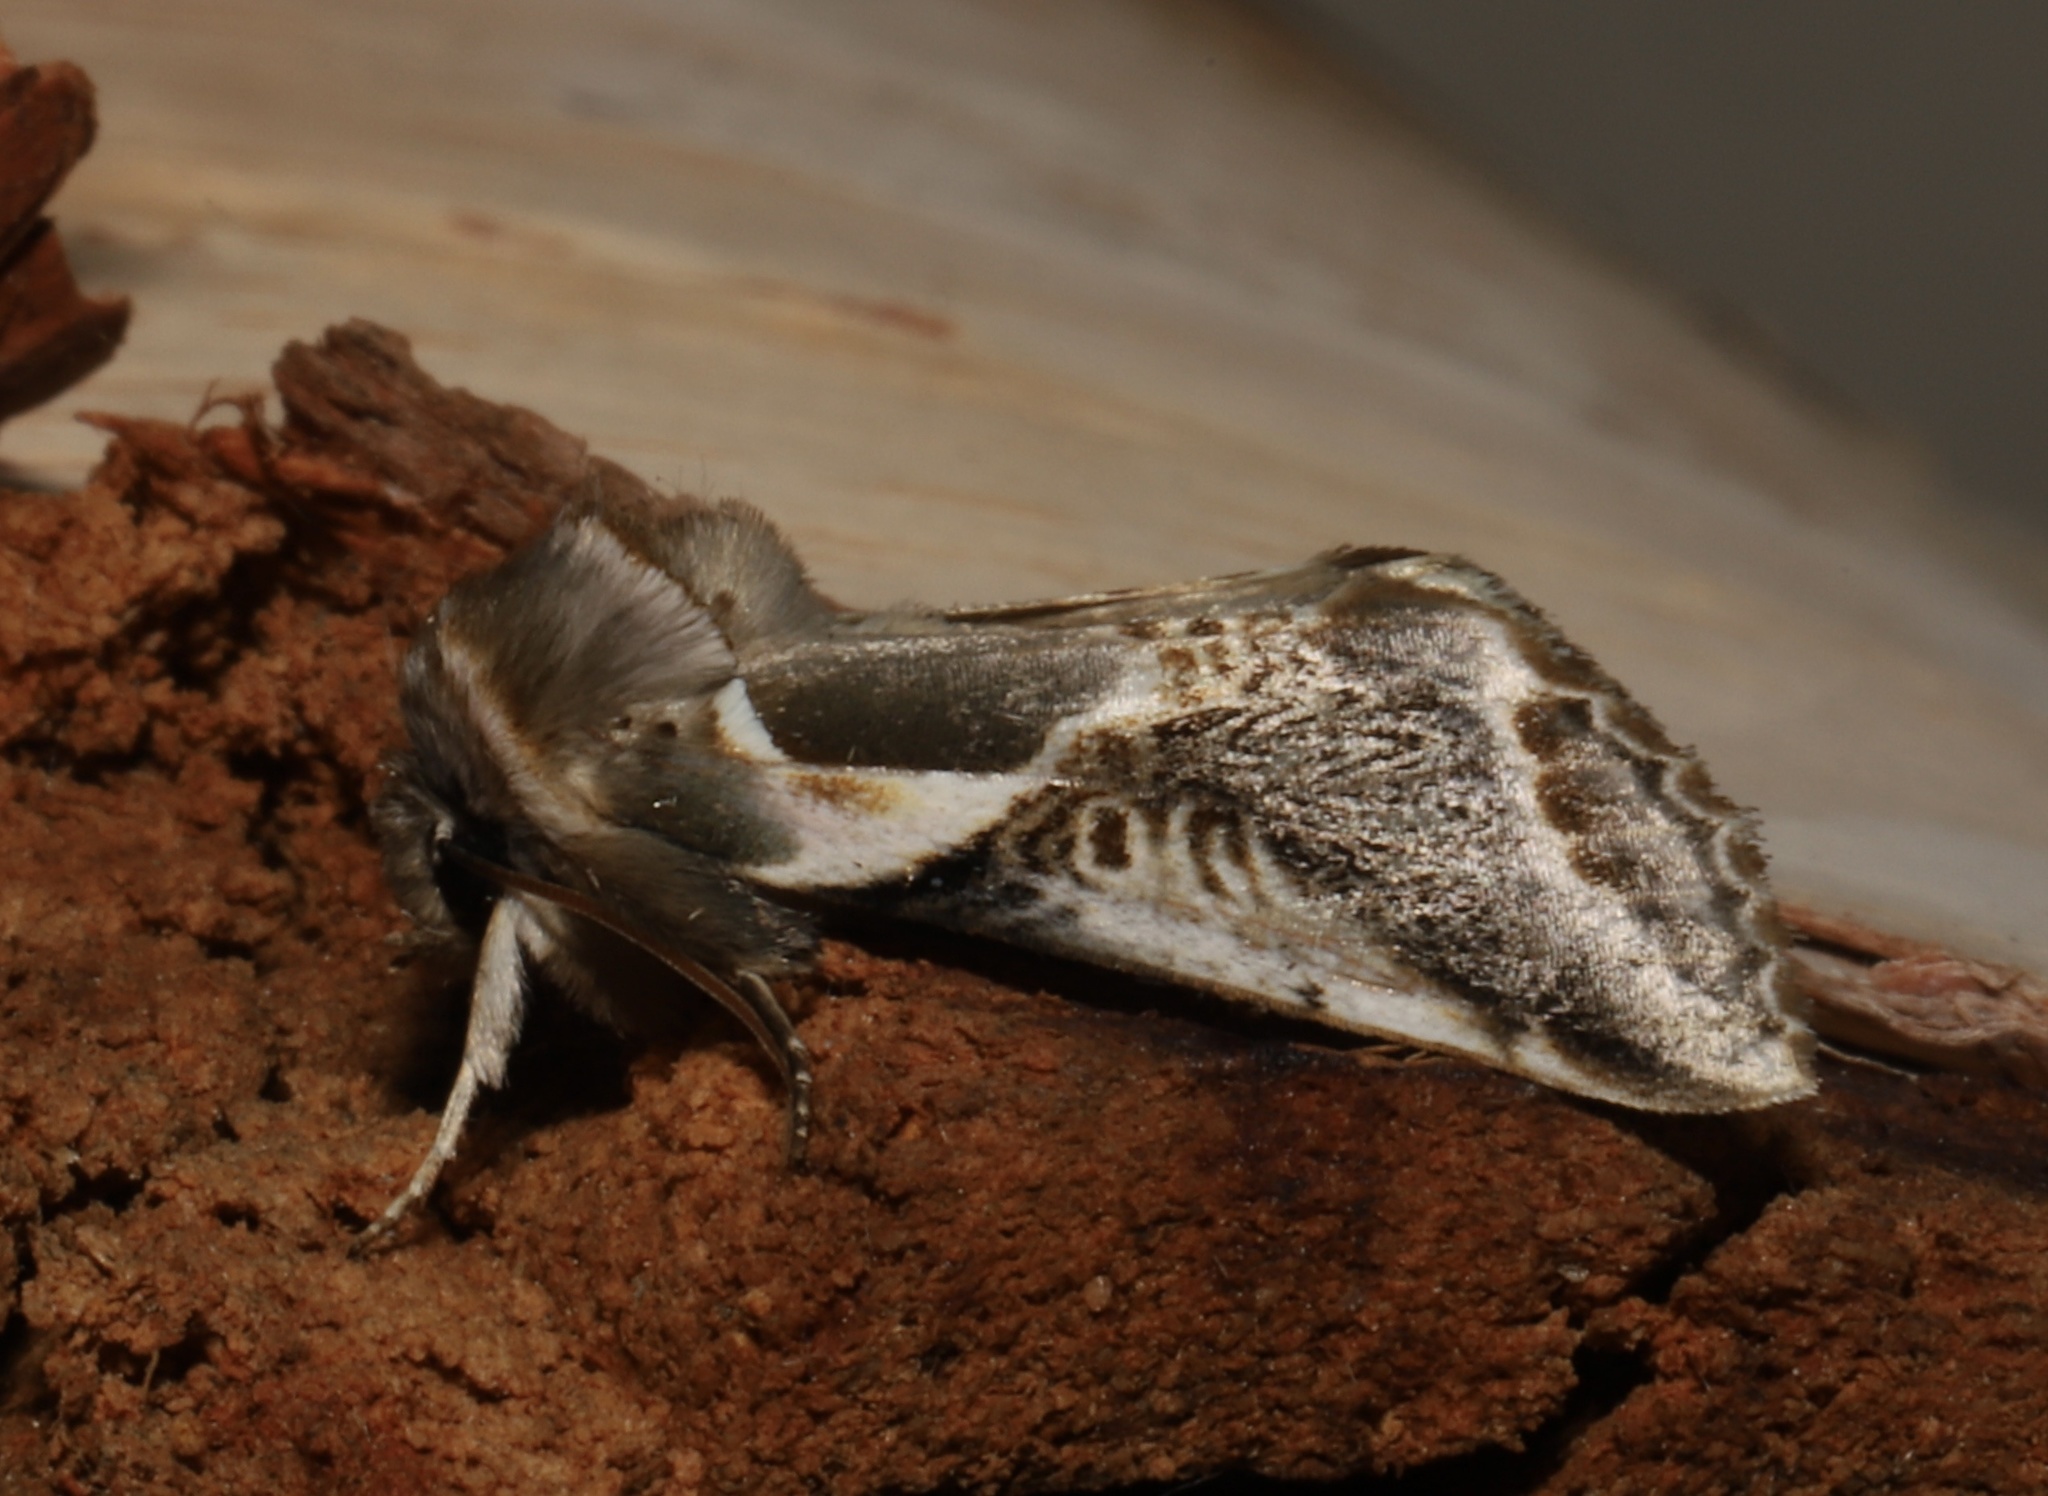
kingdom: Animalia
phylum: Arthropoda
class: Insecta
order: Lepidoptera
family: Drepanidae
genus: Habrosyne
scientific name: Habrosyne scripta
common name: Lettered habrosyne moth
